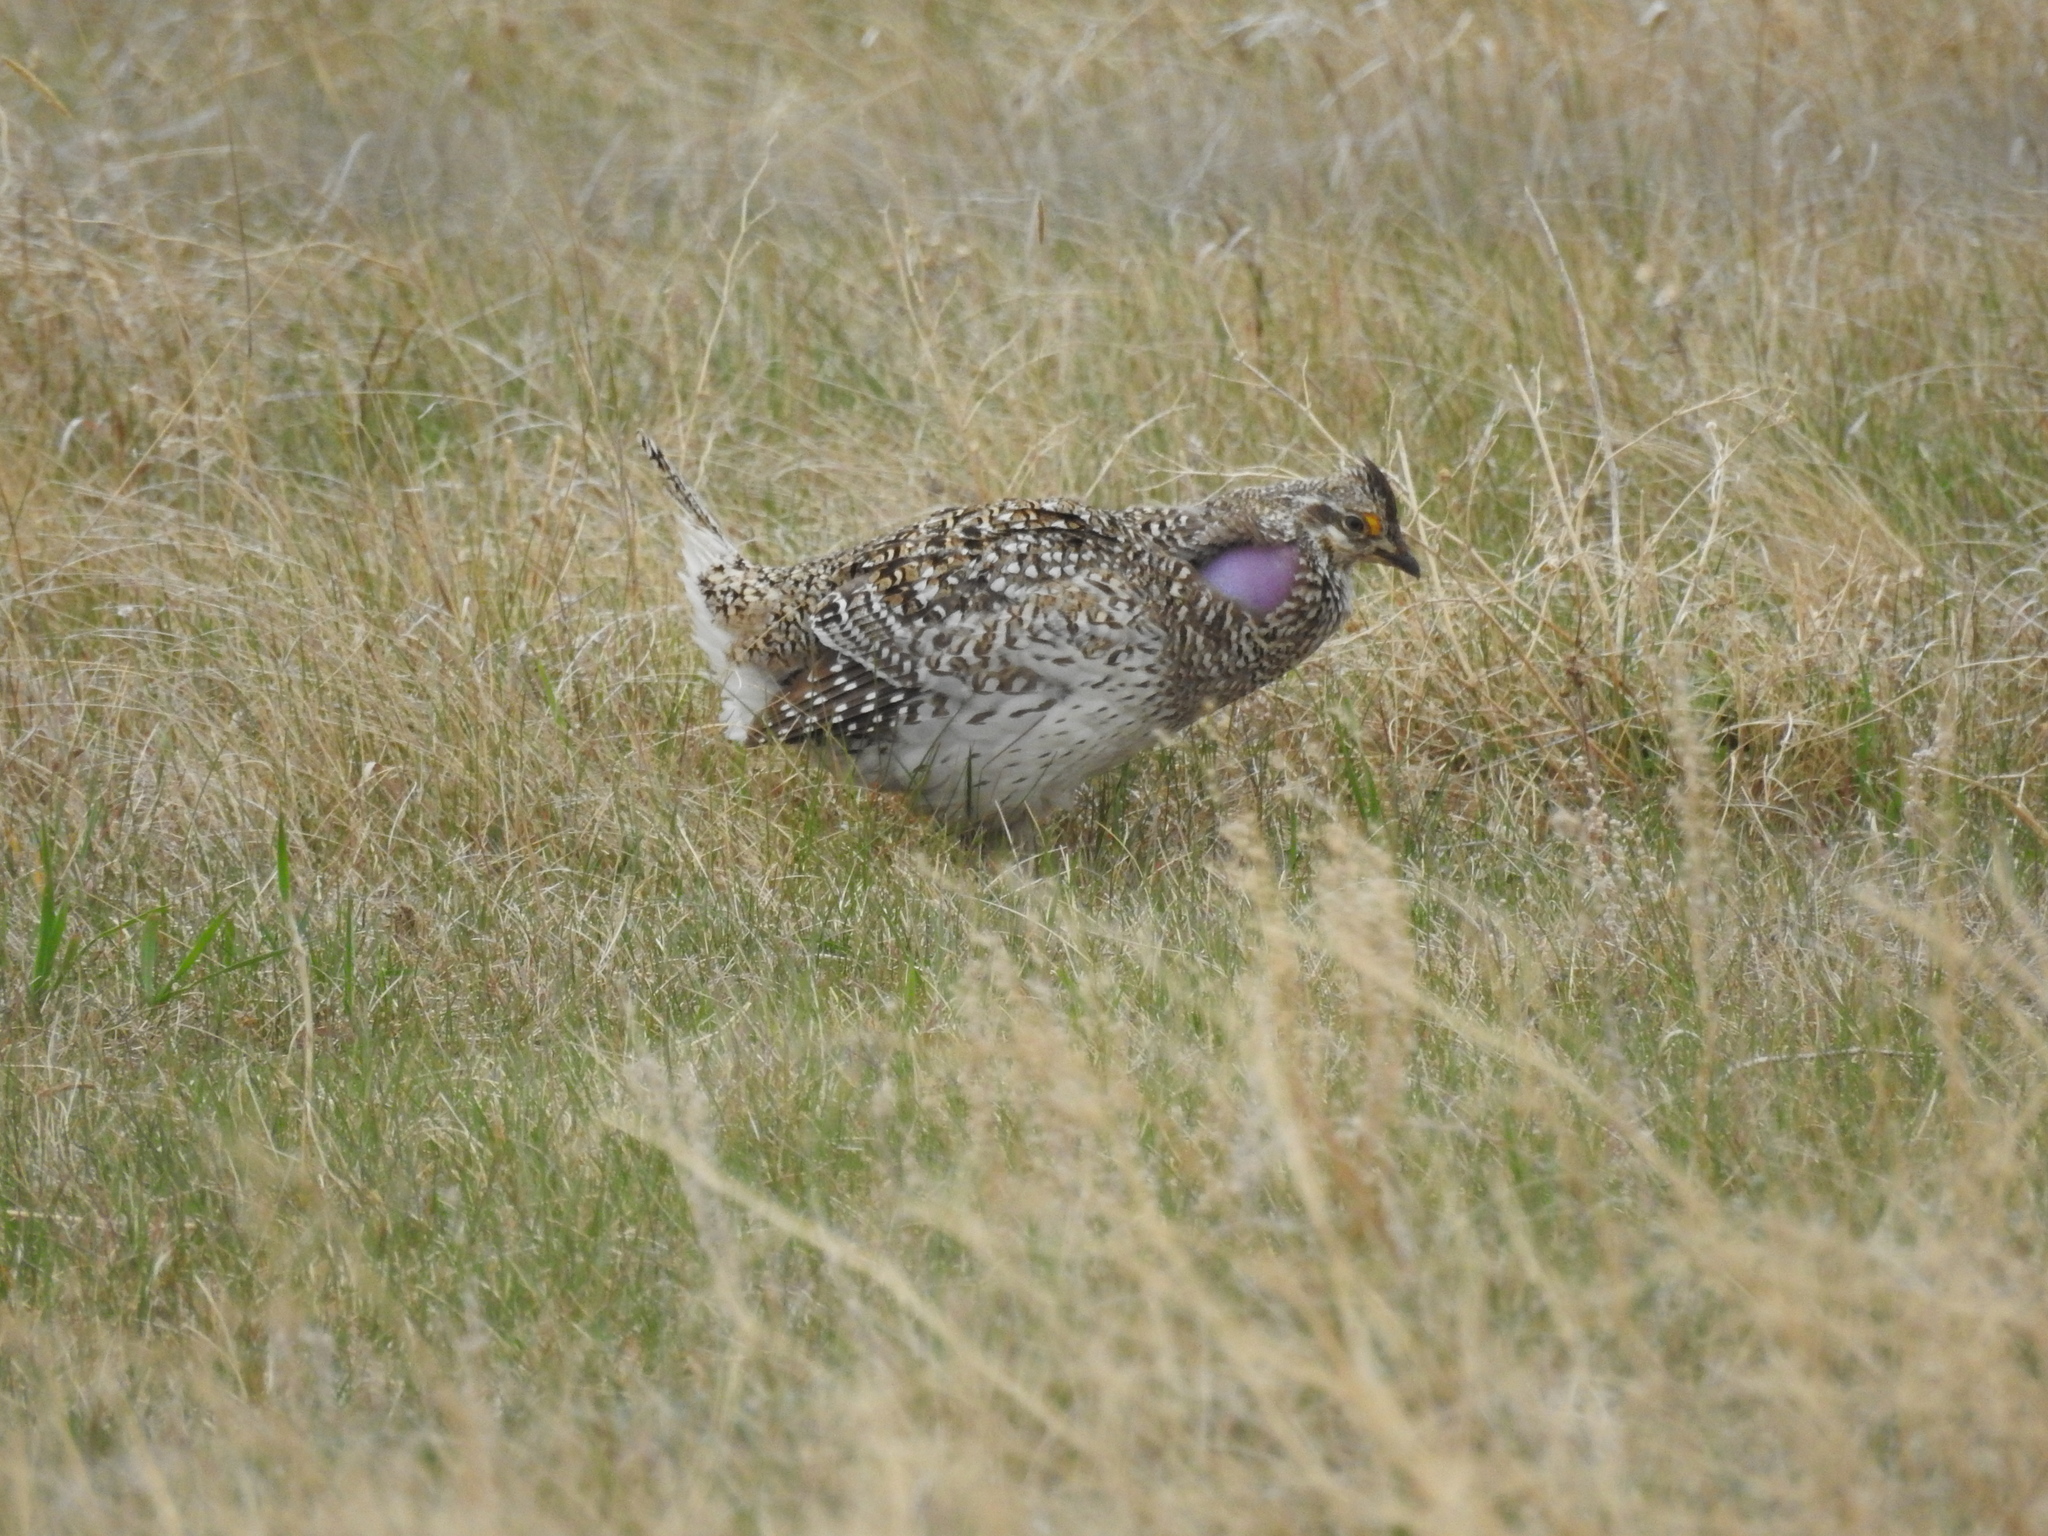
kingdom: Animalia
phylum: Chordata
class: Aves
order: Galliformes
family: Phasianidae
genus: Tympanuchus
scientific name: Tympanuchus phasianellus
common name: Sharp-tailed grouse
